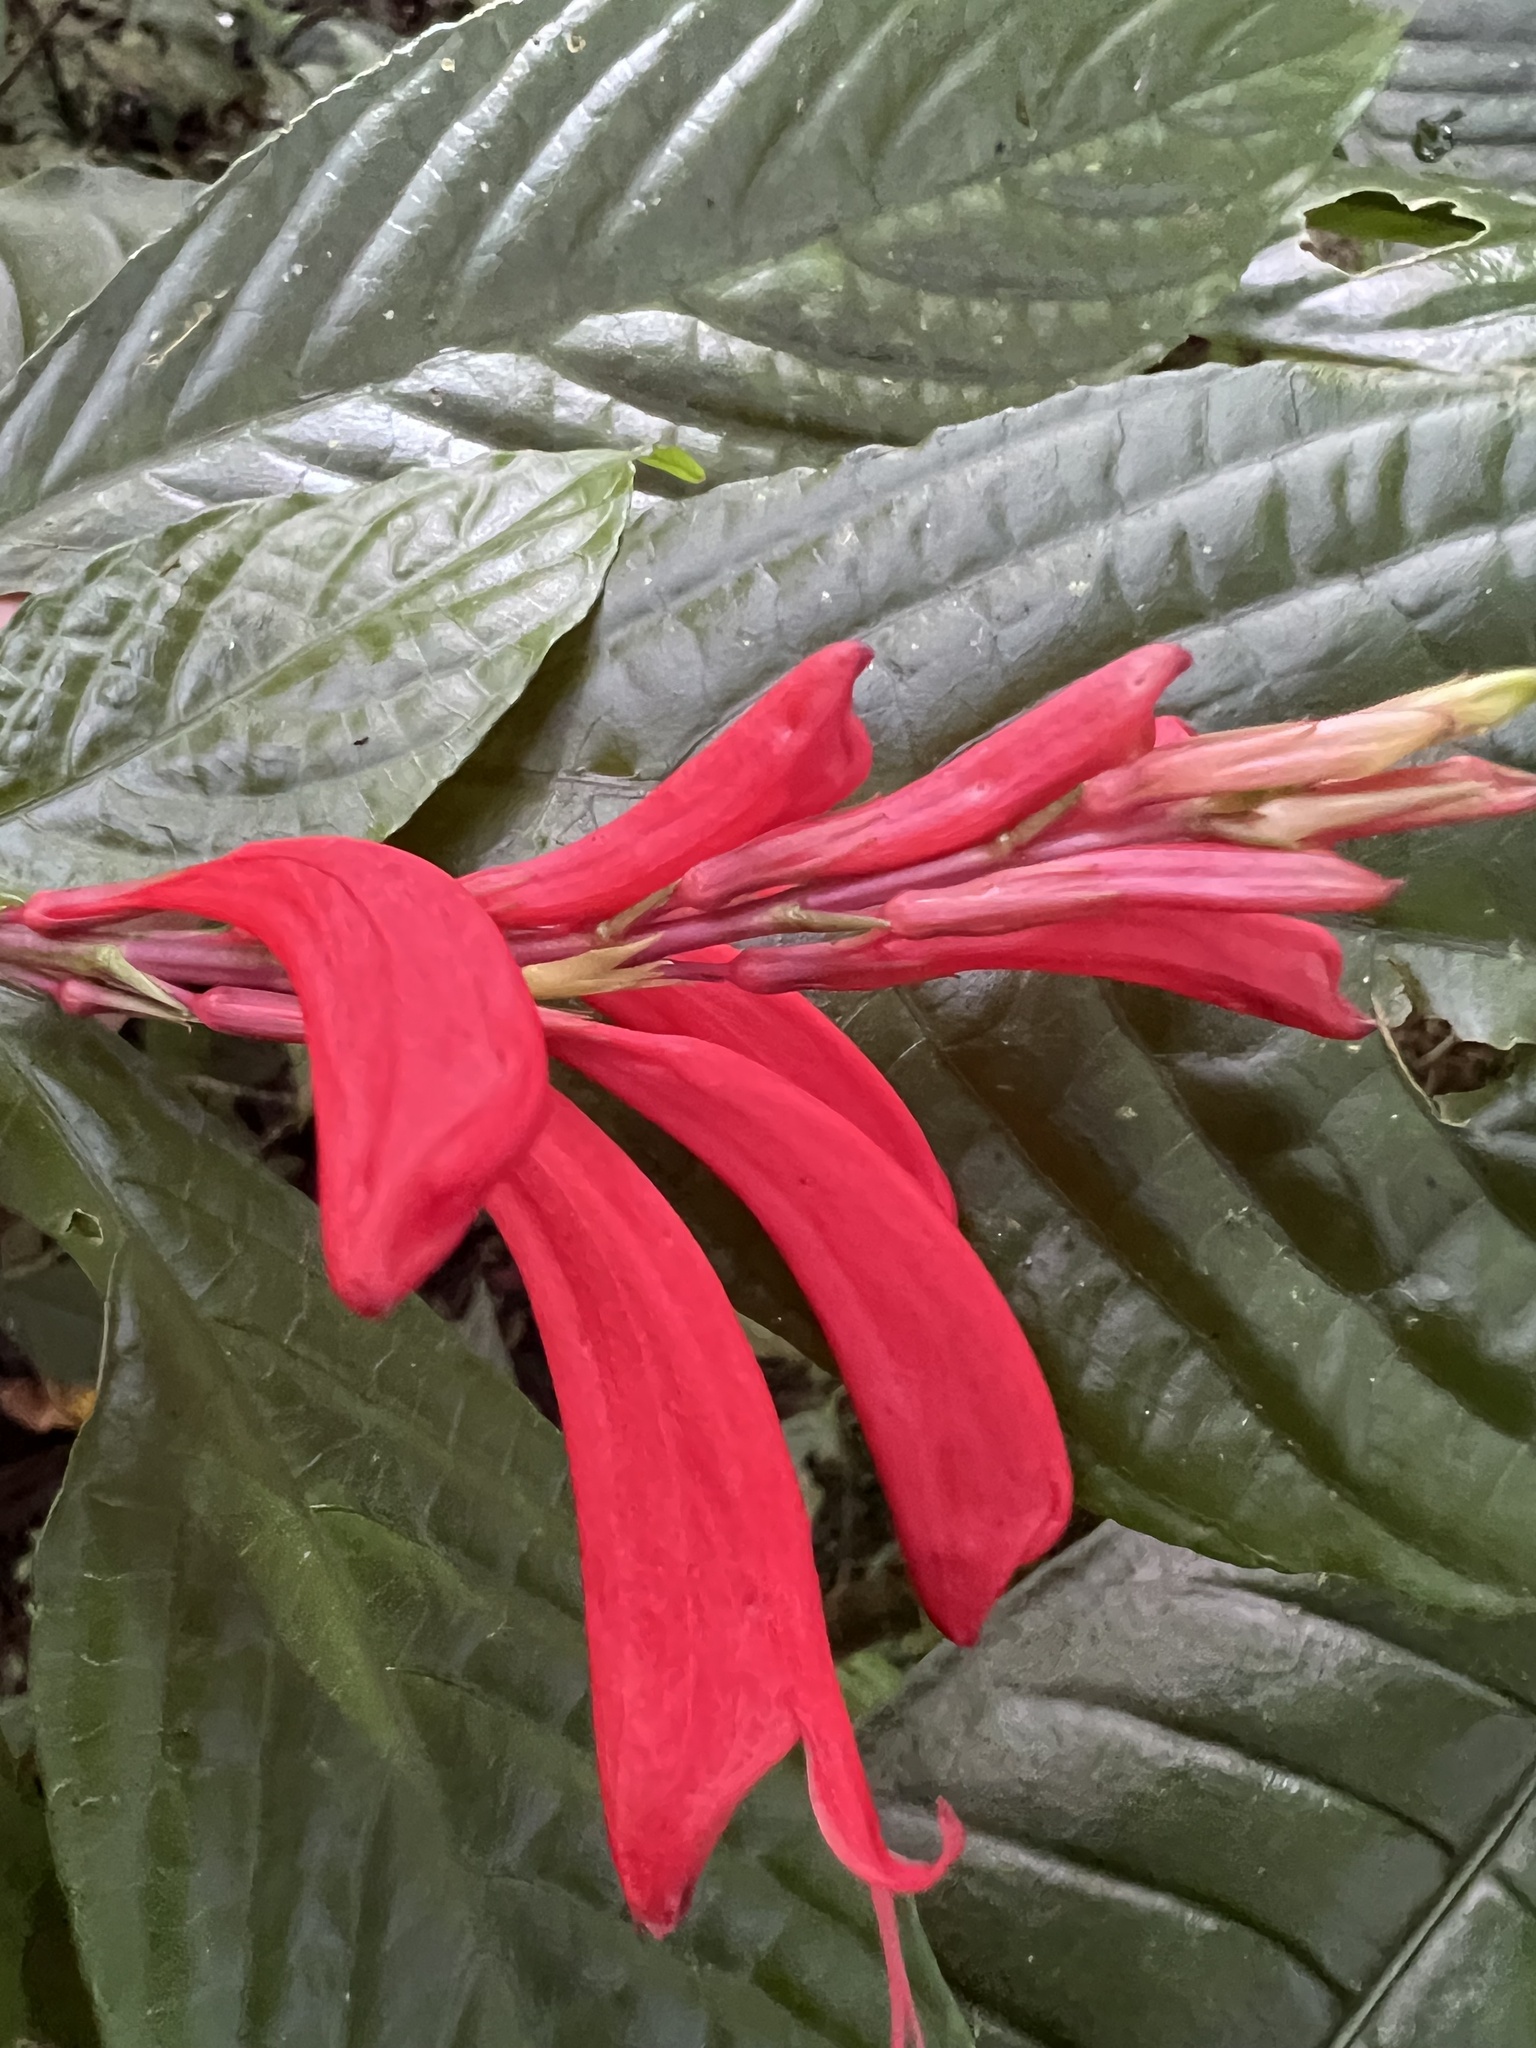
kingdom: Plantae
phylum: Tracheophyta
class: Magnoliopsida
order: Lamiales
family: Acanthaceae
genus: Stenostephanus
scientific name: Stenostephanus leiorhachis
